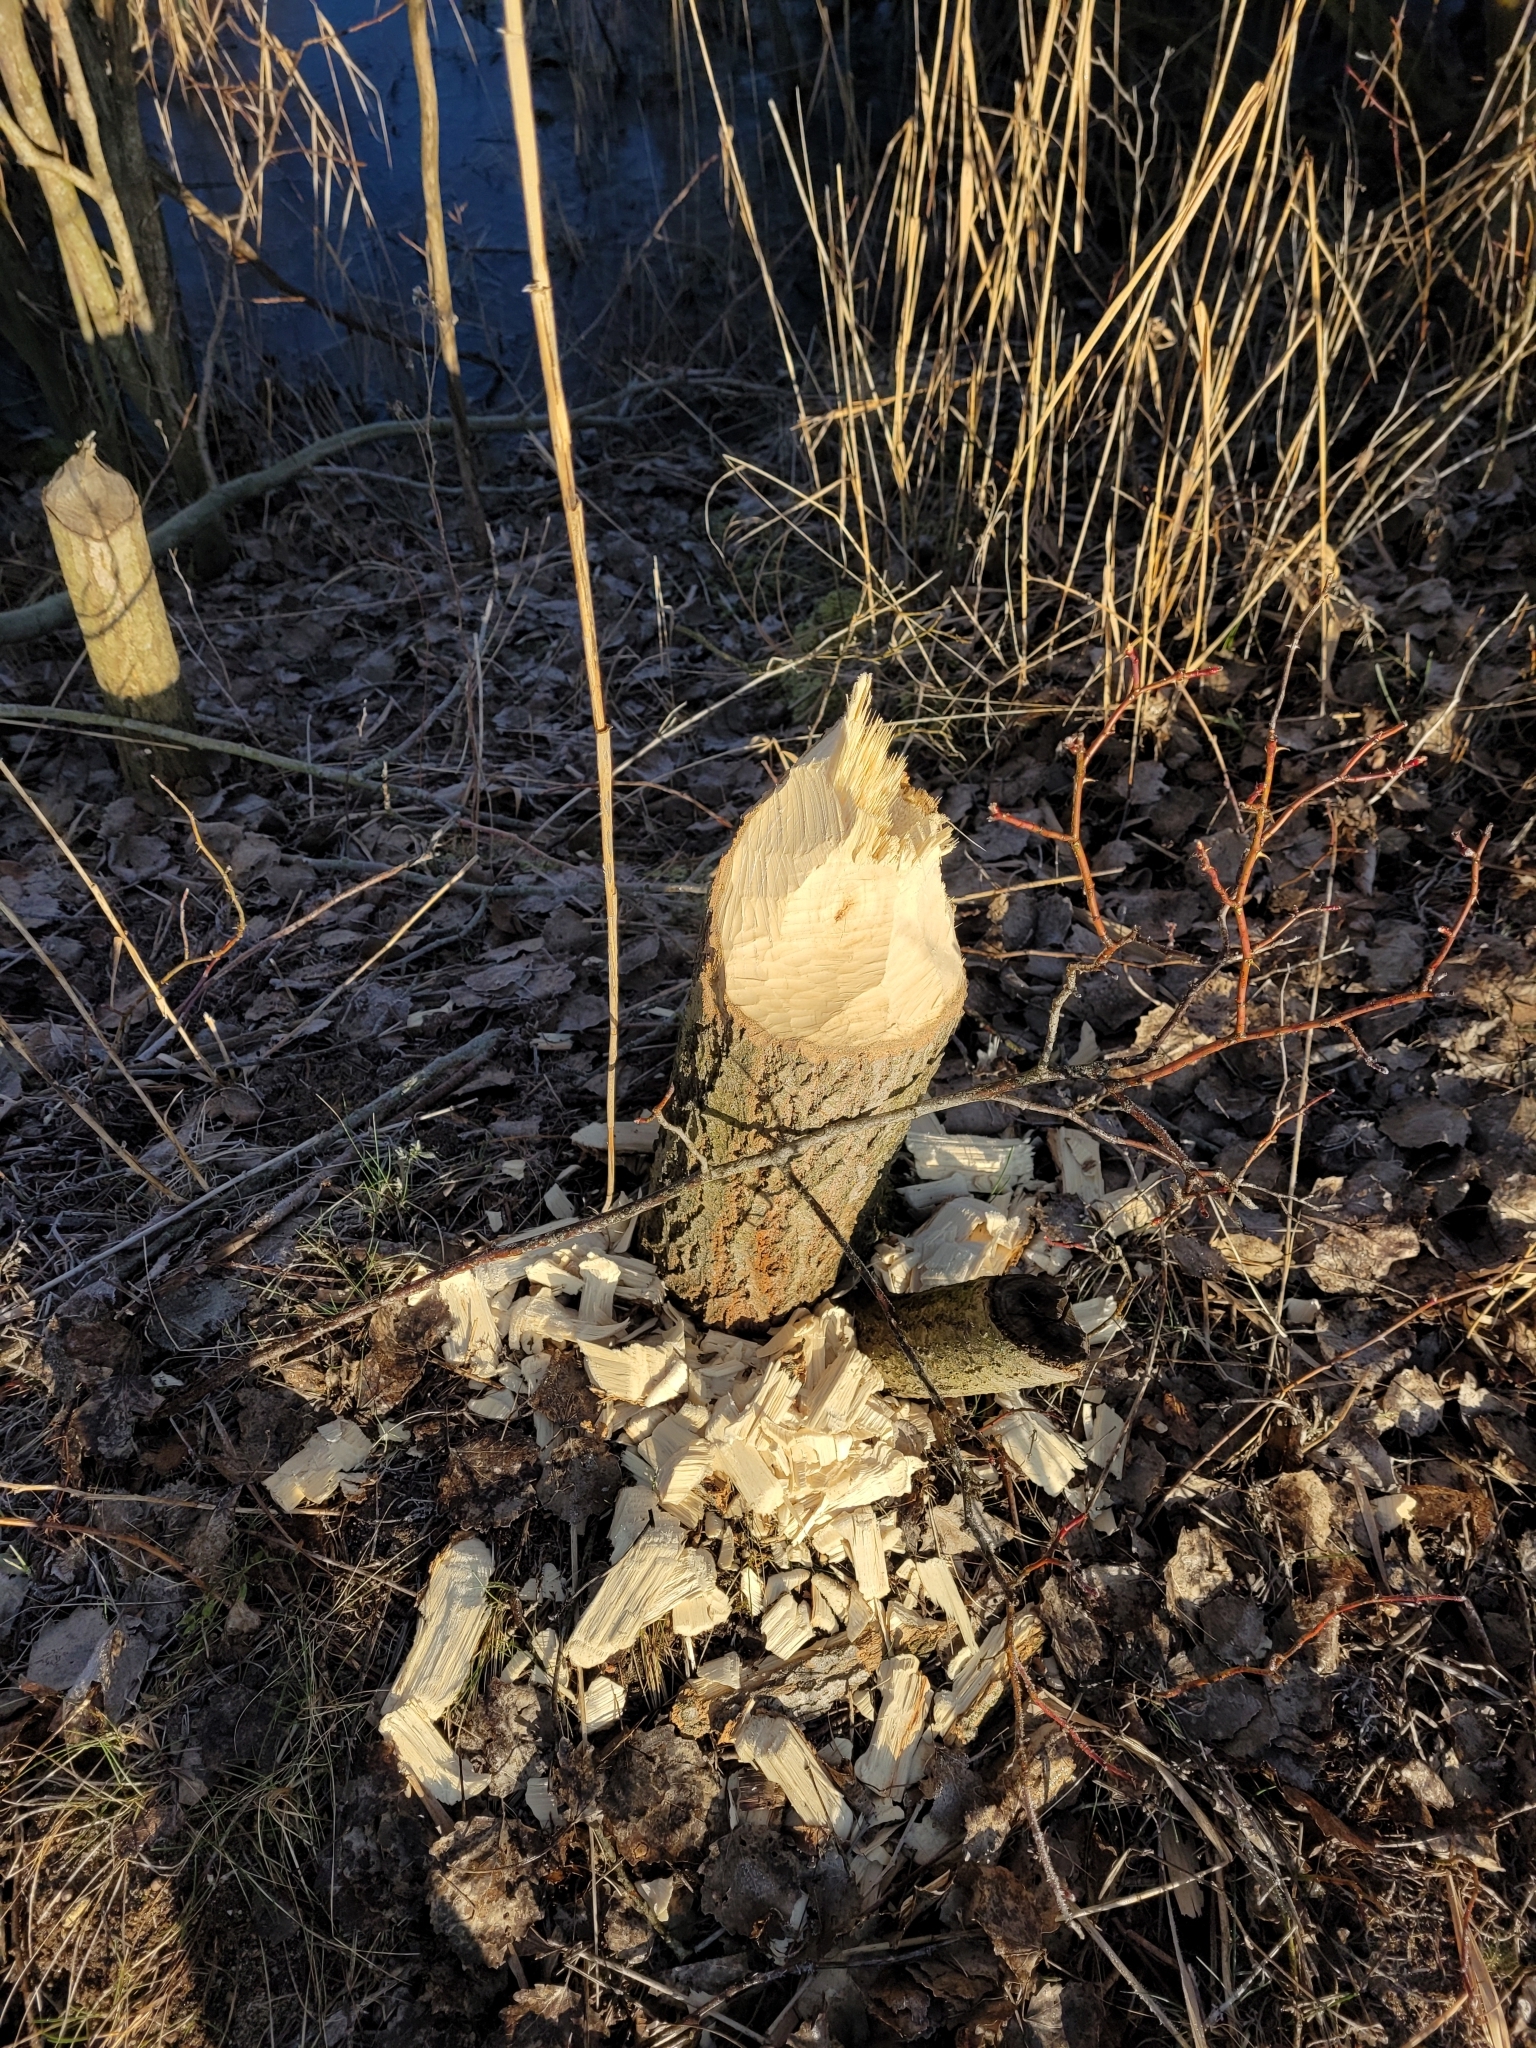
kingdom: Animalia
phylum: Chordata
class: Mammalia
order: Rodentia
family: Castoridae
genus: Castor
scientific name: Castor fiber
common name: Eurasian beaver
